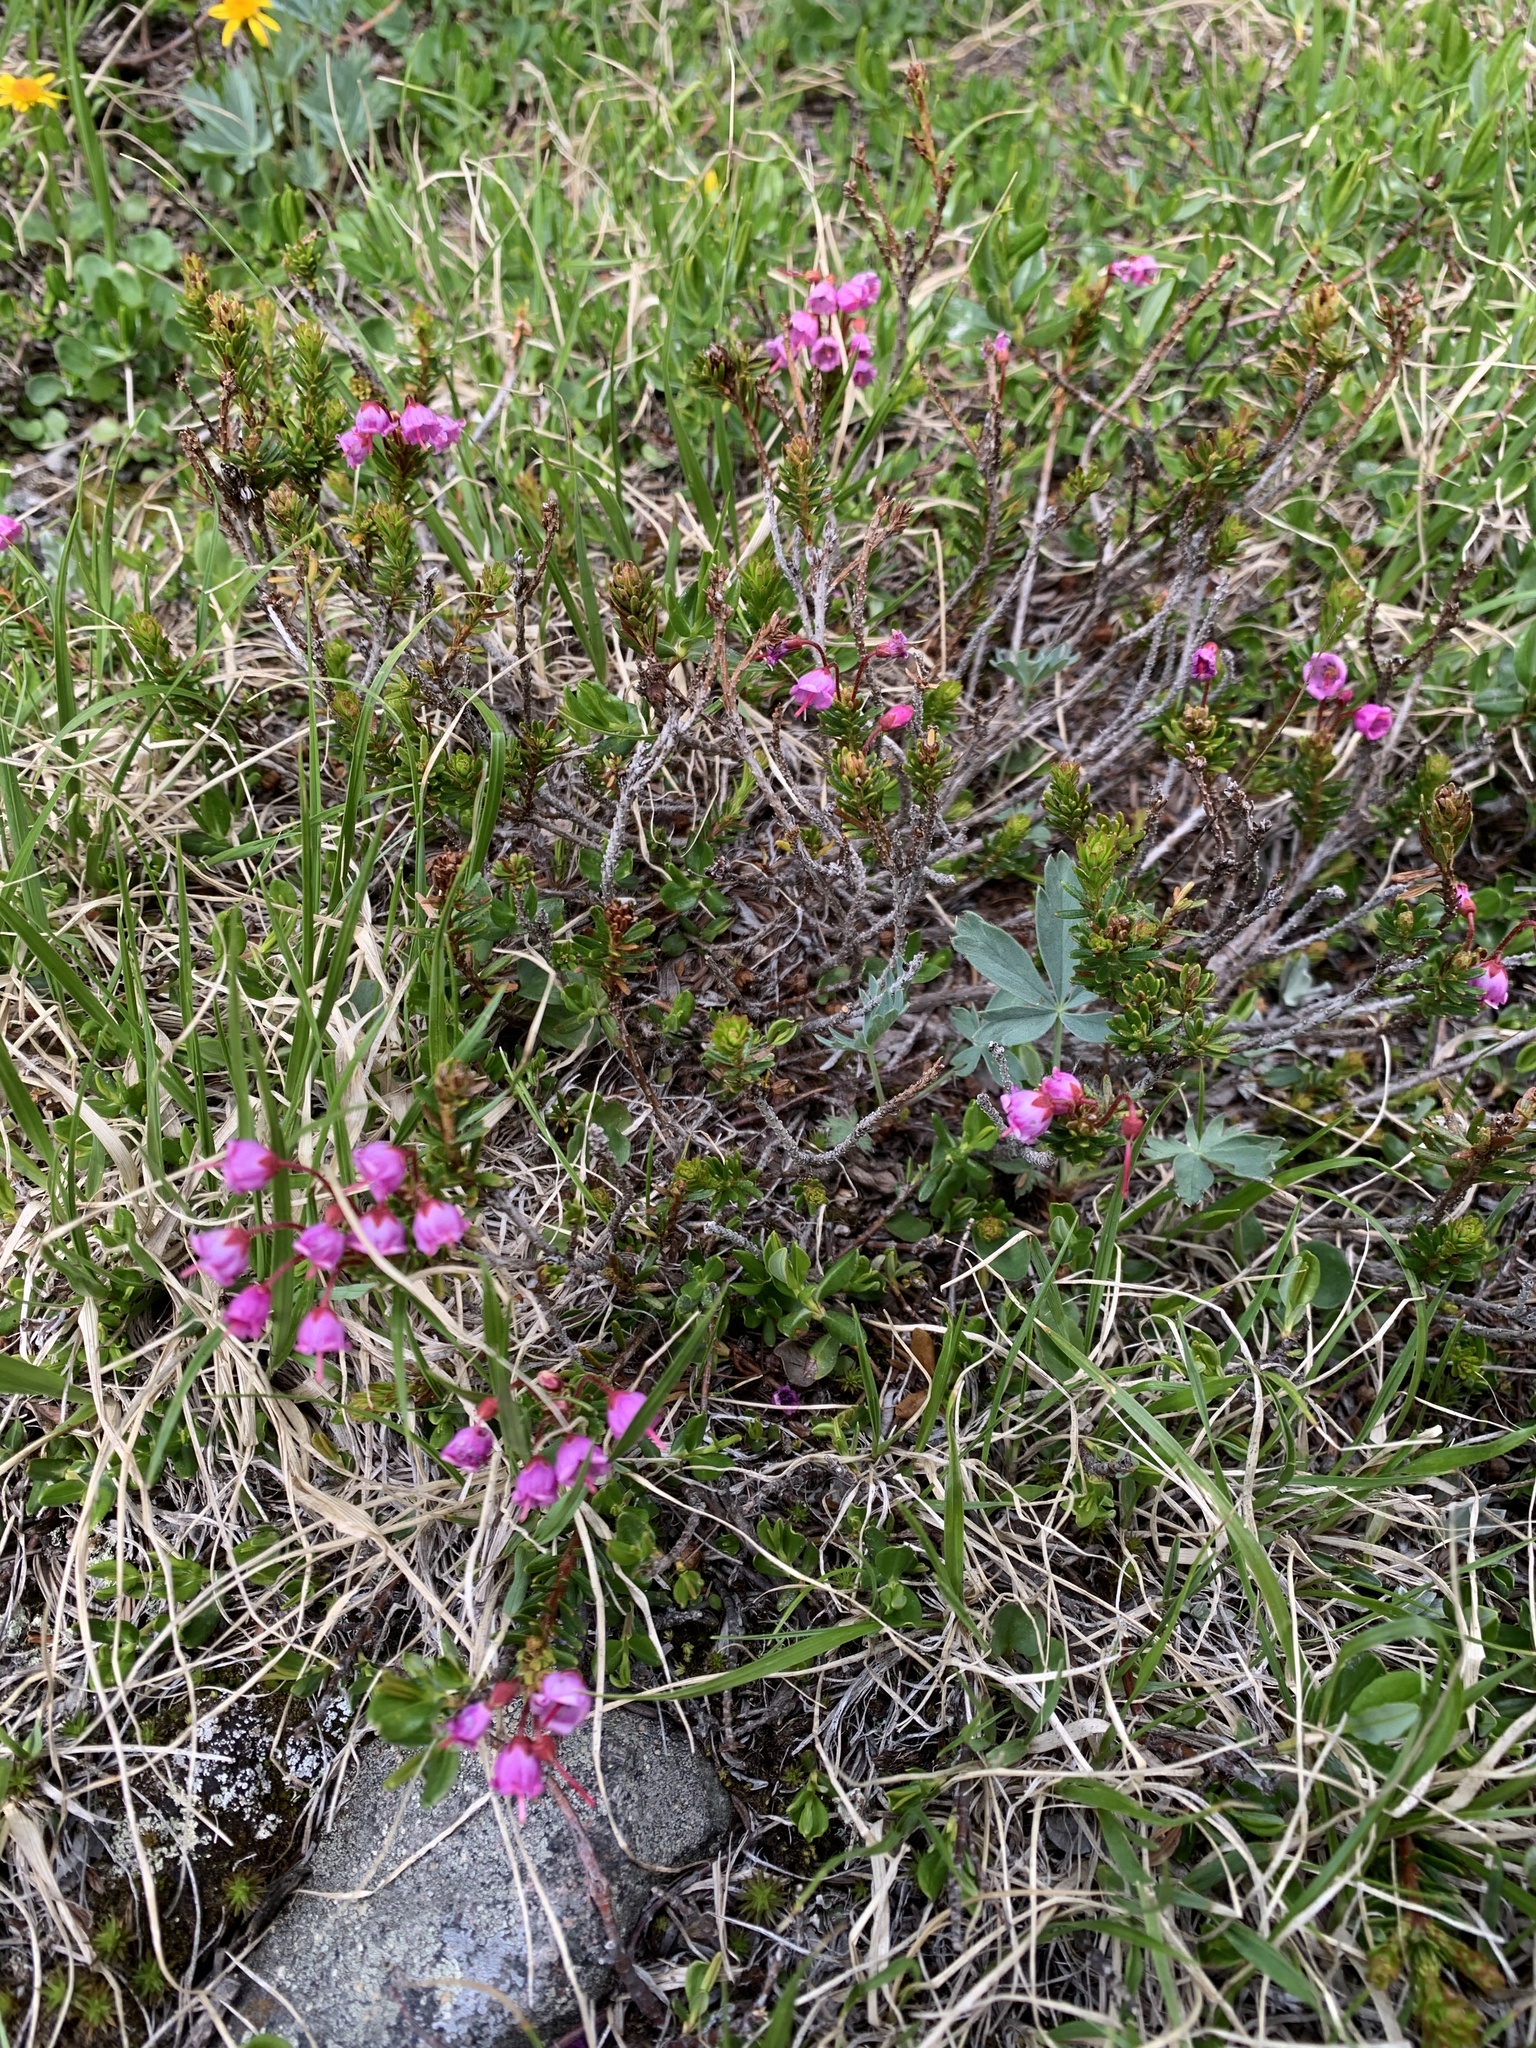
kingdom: Plantae
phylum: Tracheophyta
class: Magnoliopsida
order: Ericales
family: Ericaceae
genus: Phyllodoce
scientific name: Phyllodoce empetriformis
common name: Pink mountain heather
